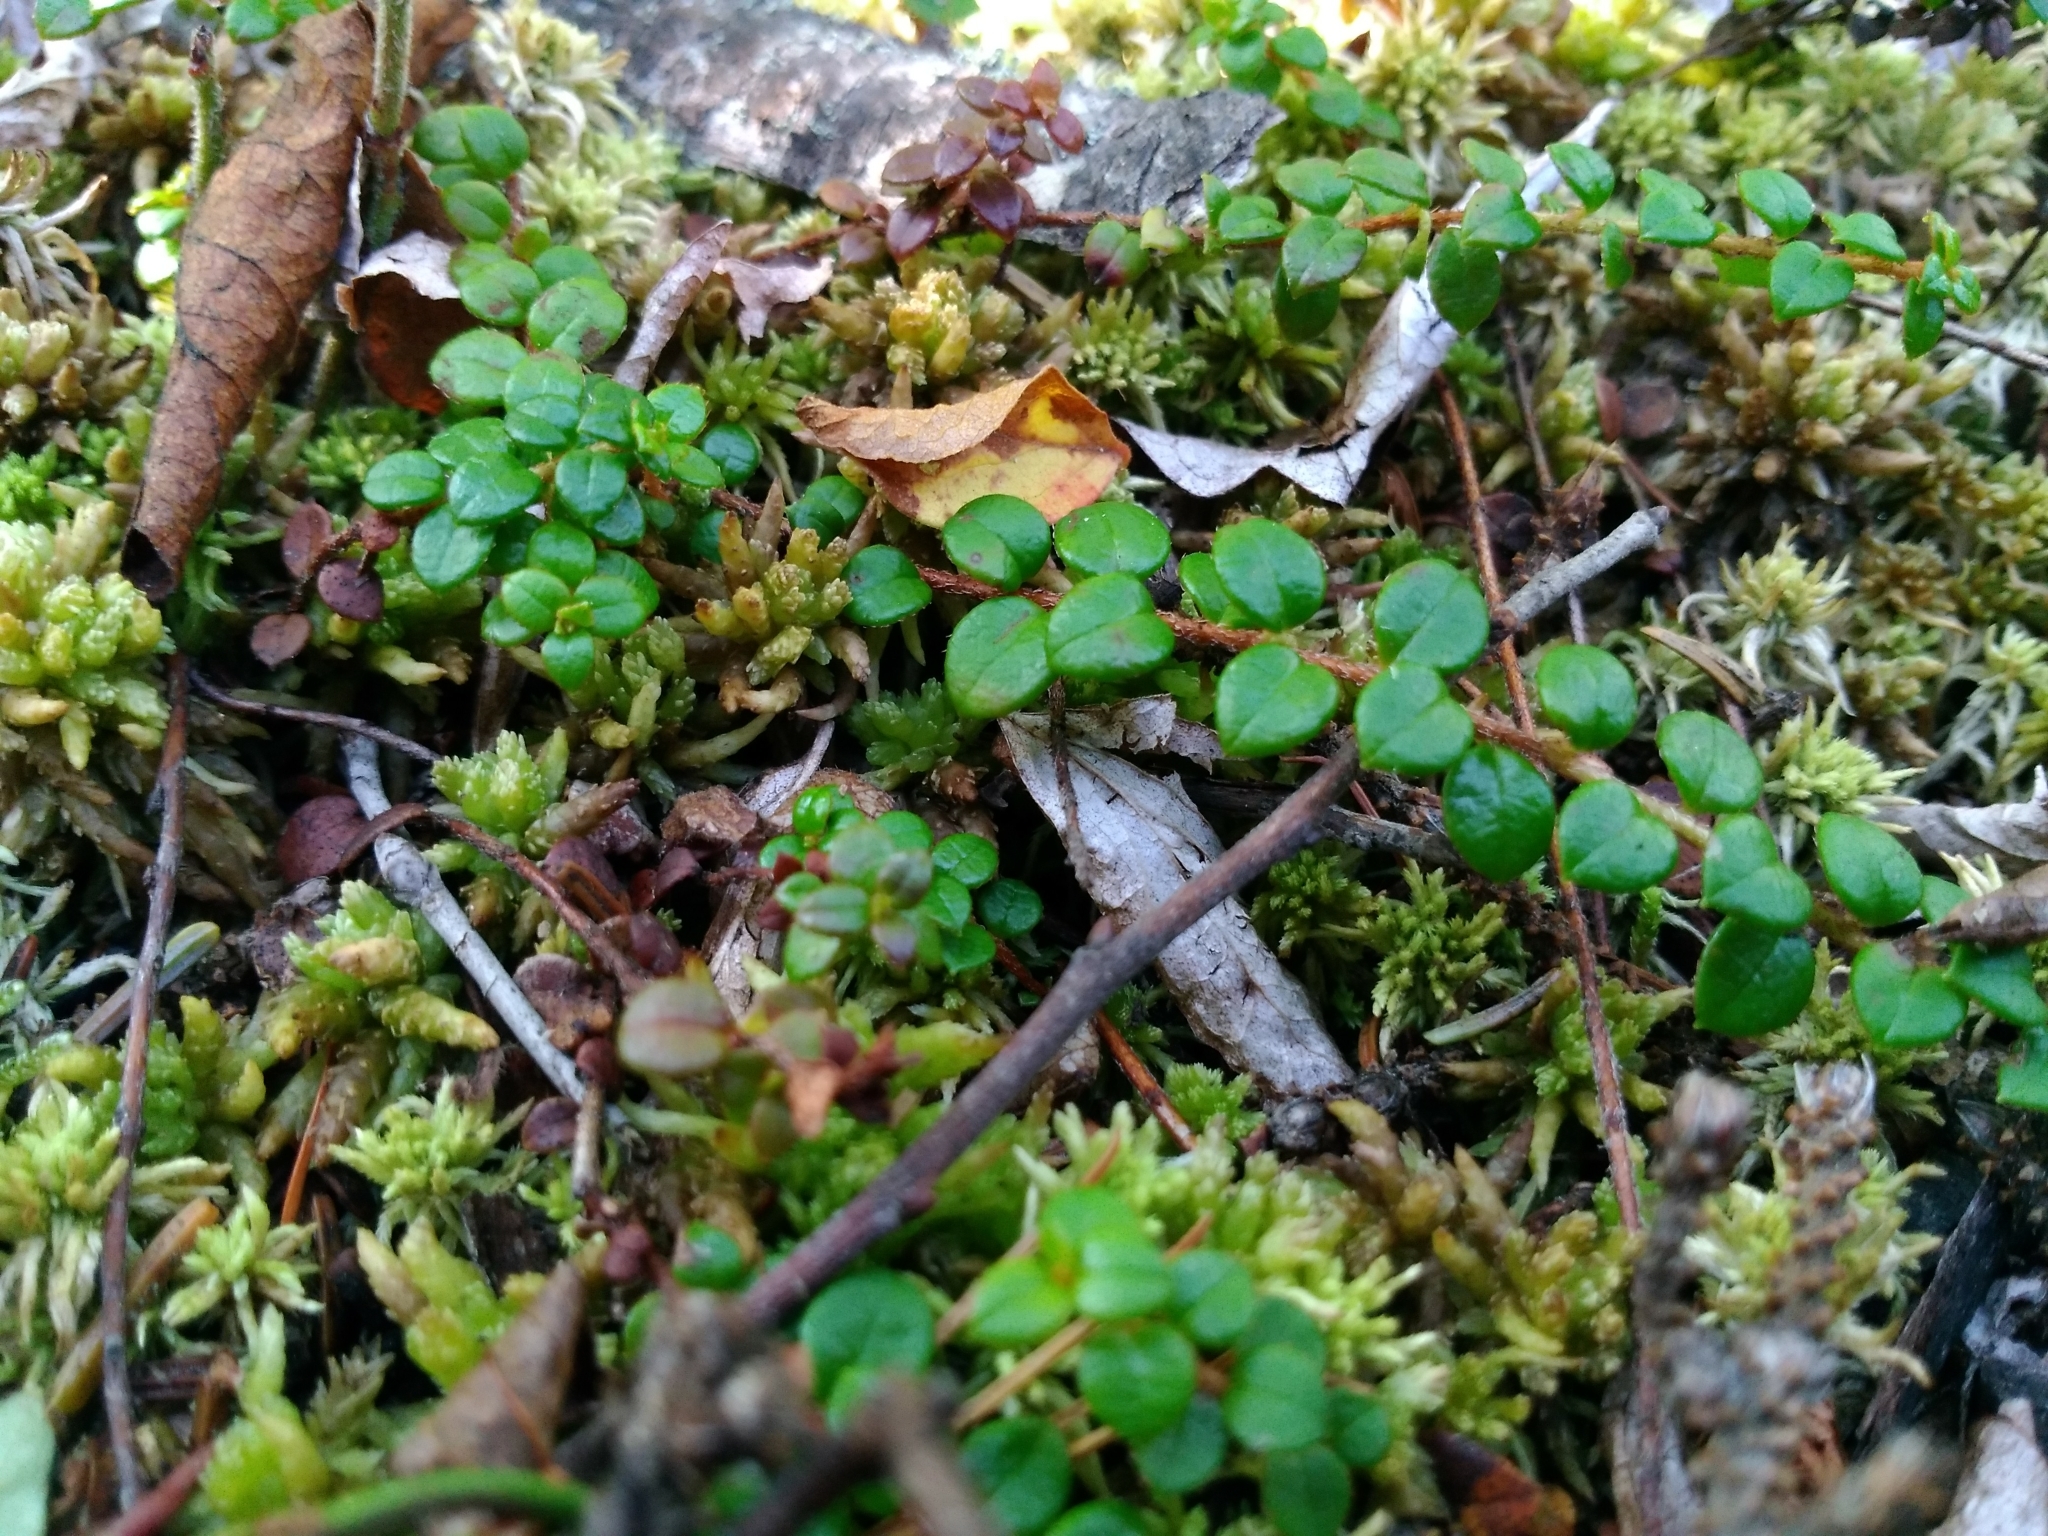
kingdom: Plantae
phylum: Tracheophyta
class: Magnoliopsida
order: Ericales
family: Ericaceae
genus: Gaultheria
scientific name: Gaultheria hispidula
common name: Cancer wintergreen
